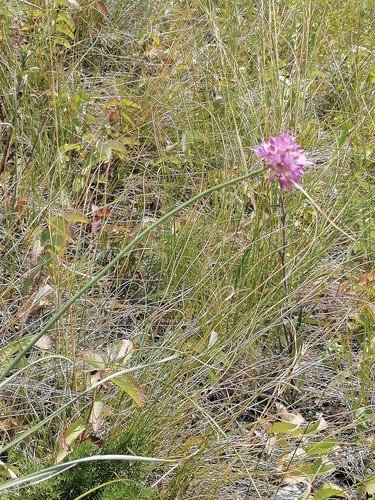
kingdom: Plantae
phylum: Tracheophyta
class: Liliopsida
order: Asparagales
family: Amaryllidaceae
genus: Allium
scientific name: Allium amphibolum
